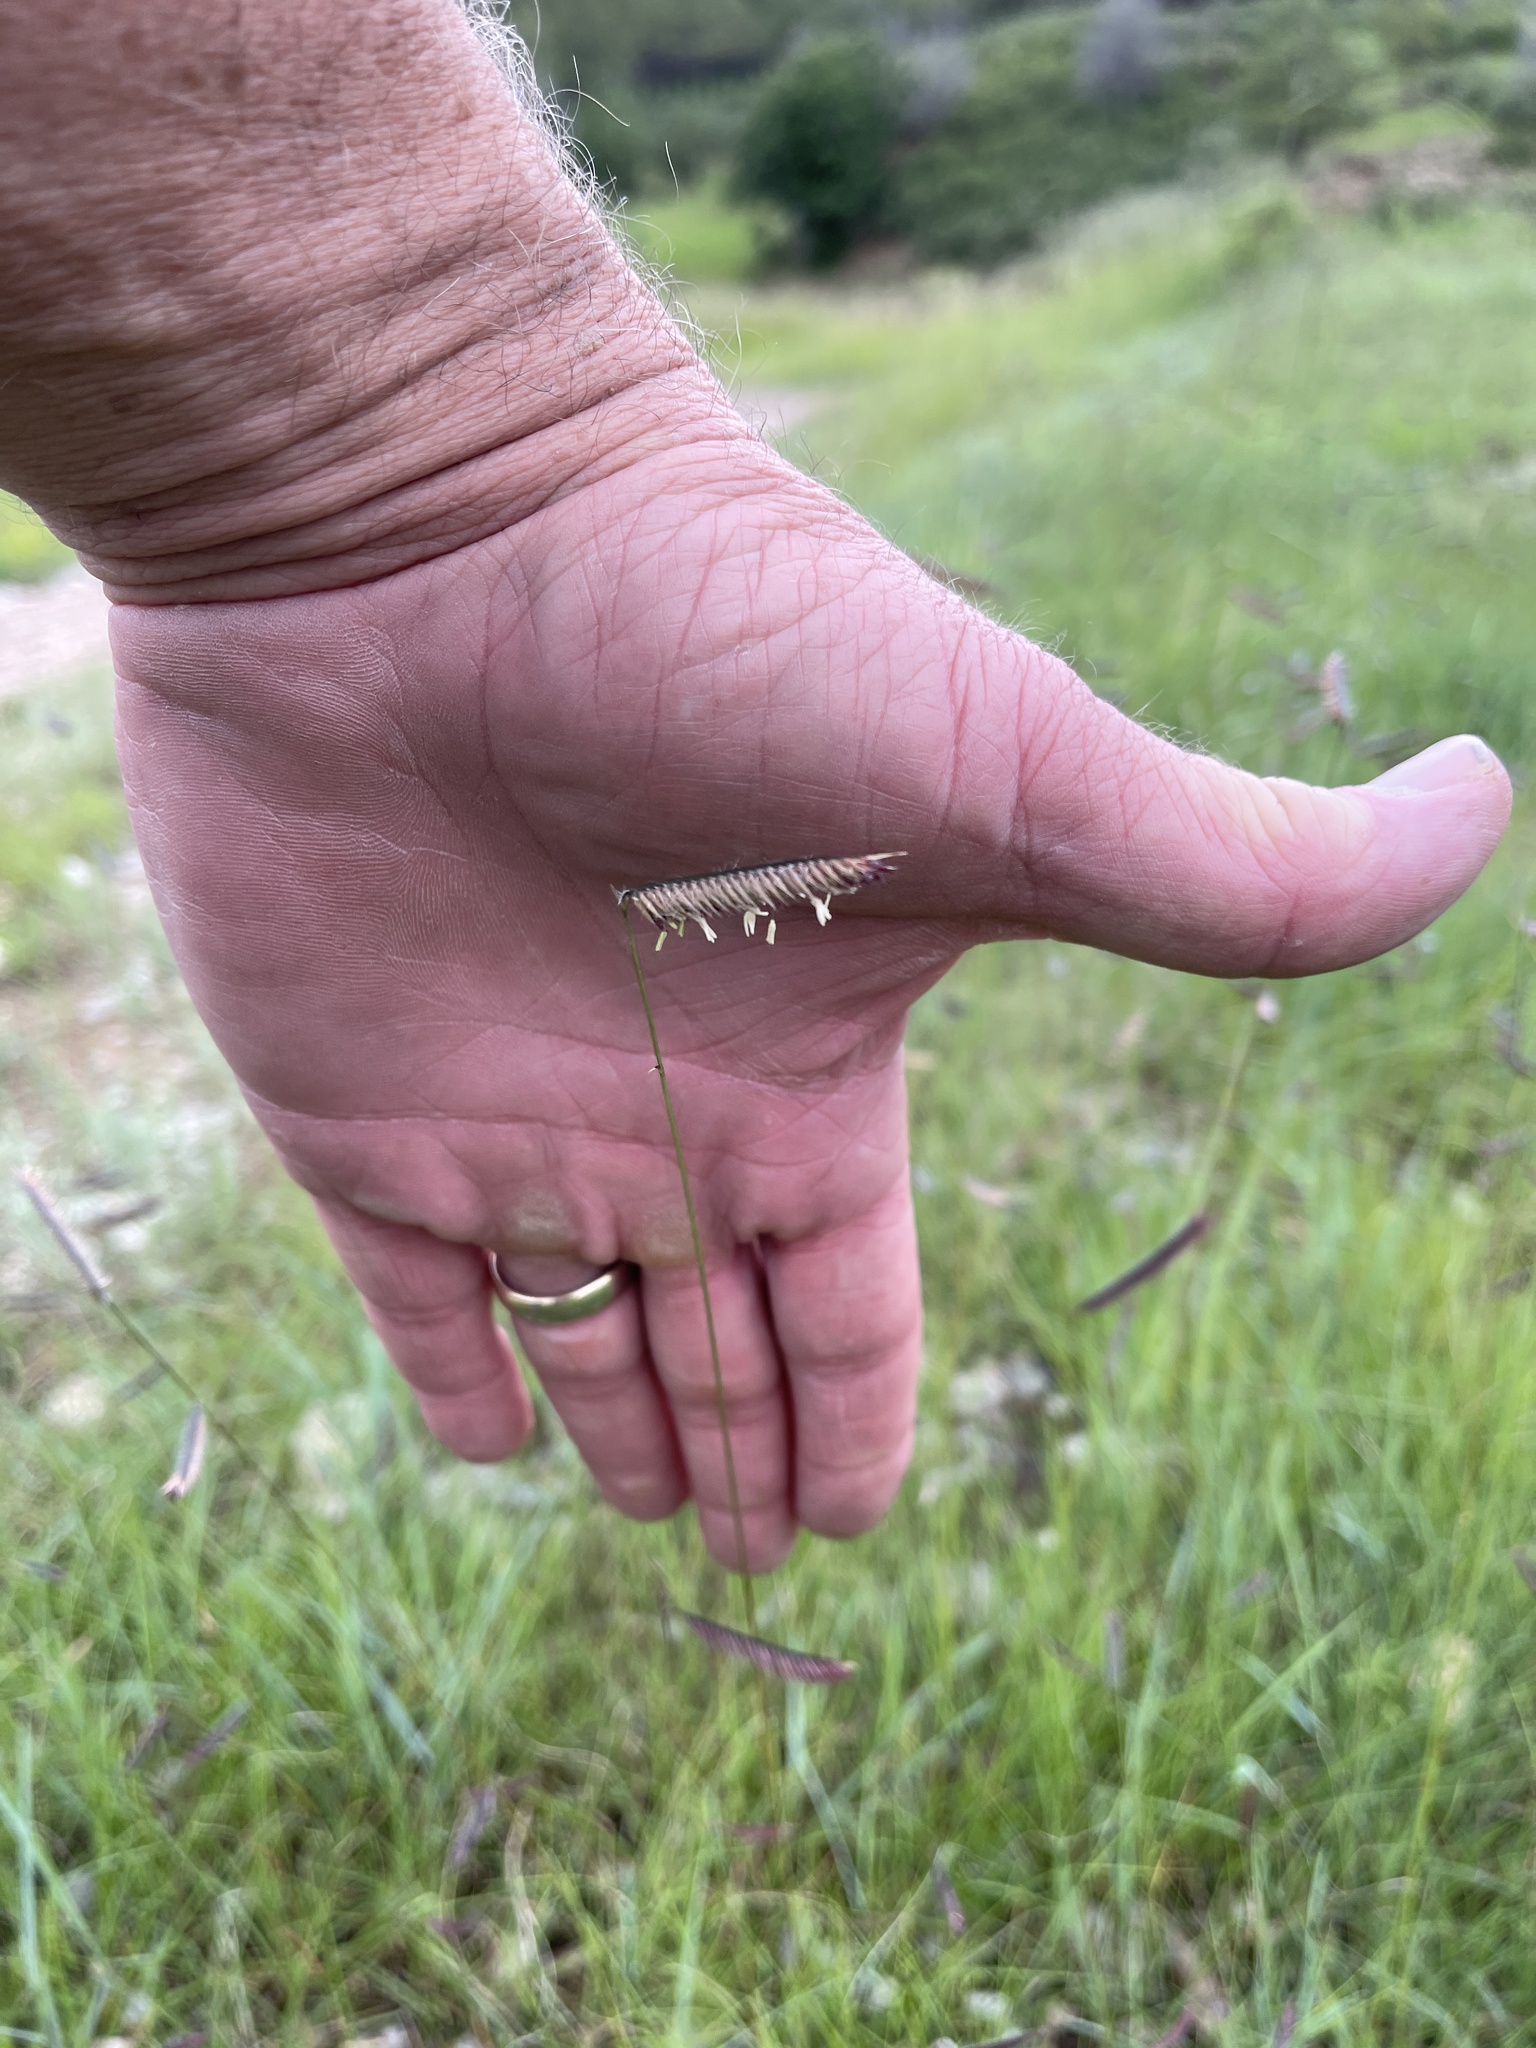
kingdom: Plantae
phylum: Tracheophyta
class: Liliopsida
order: Poales
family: Poaceae
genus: Bouteloua
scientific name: Bouteloua gracilis
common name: Blue grama
